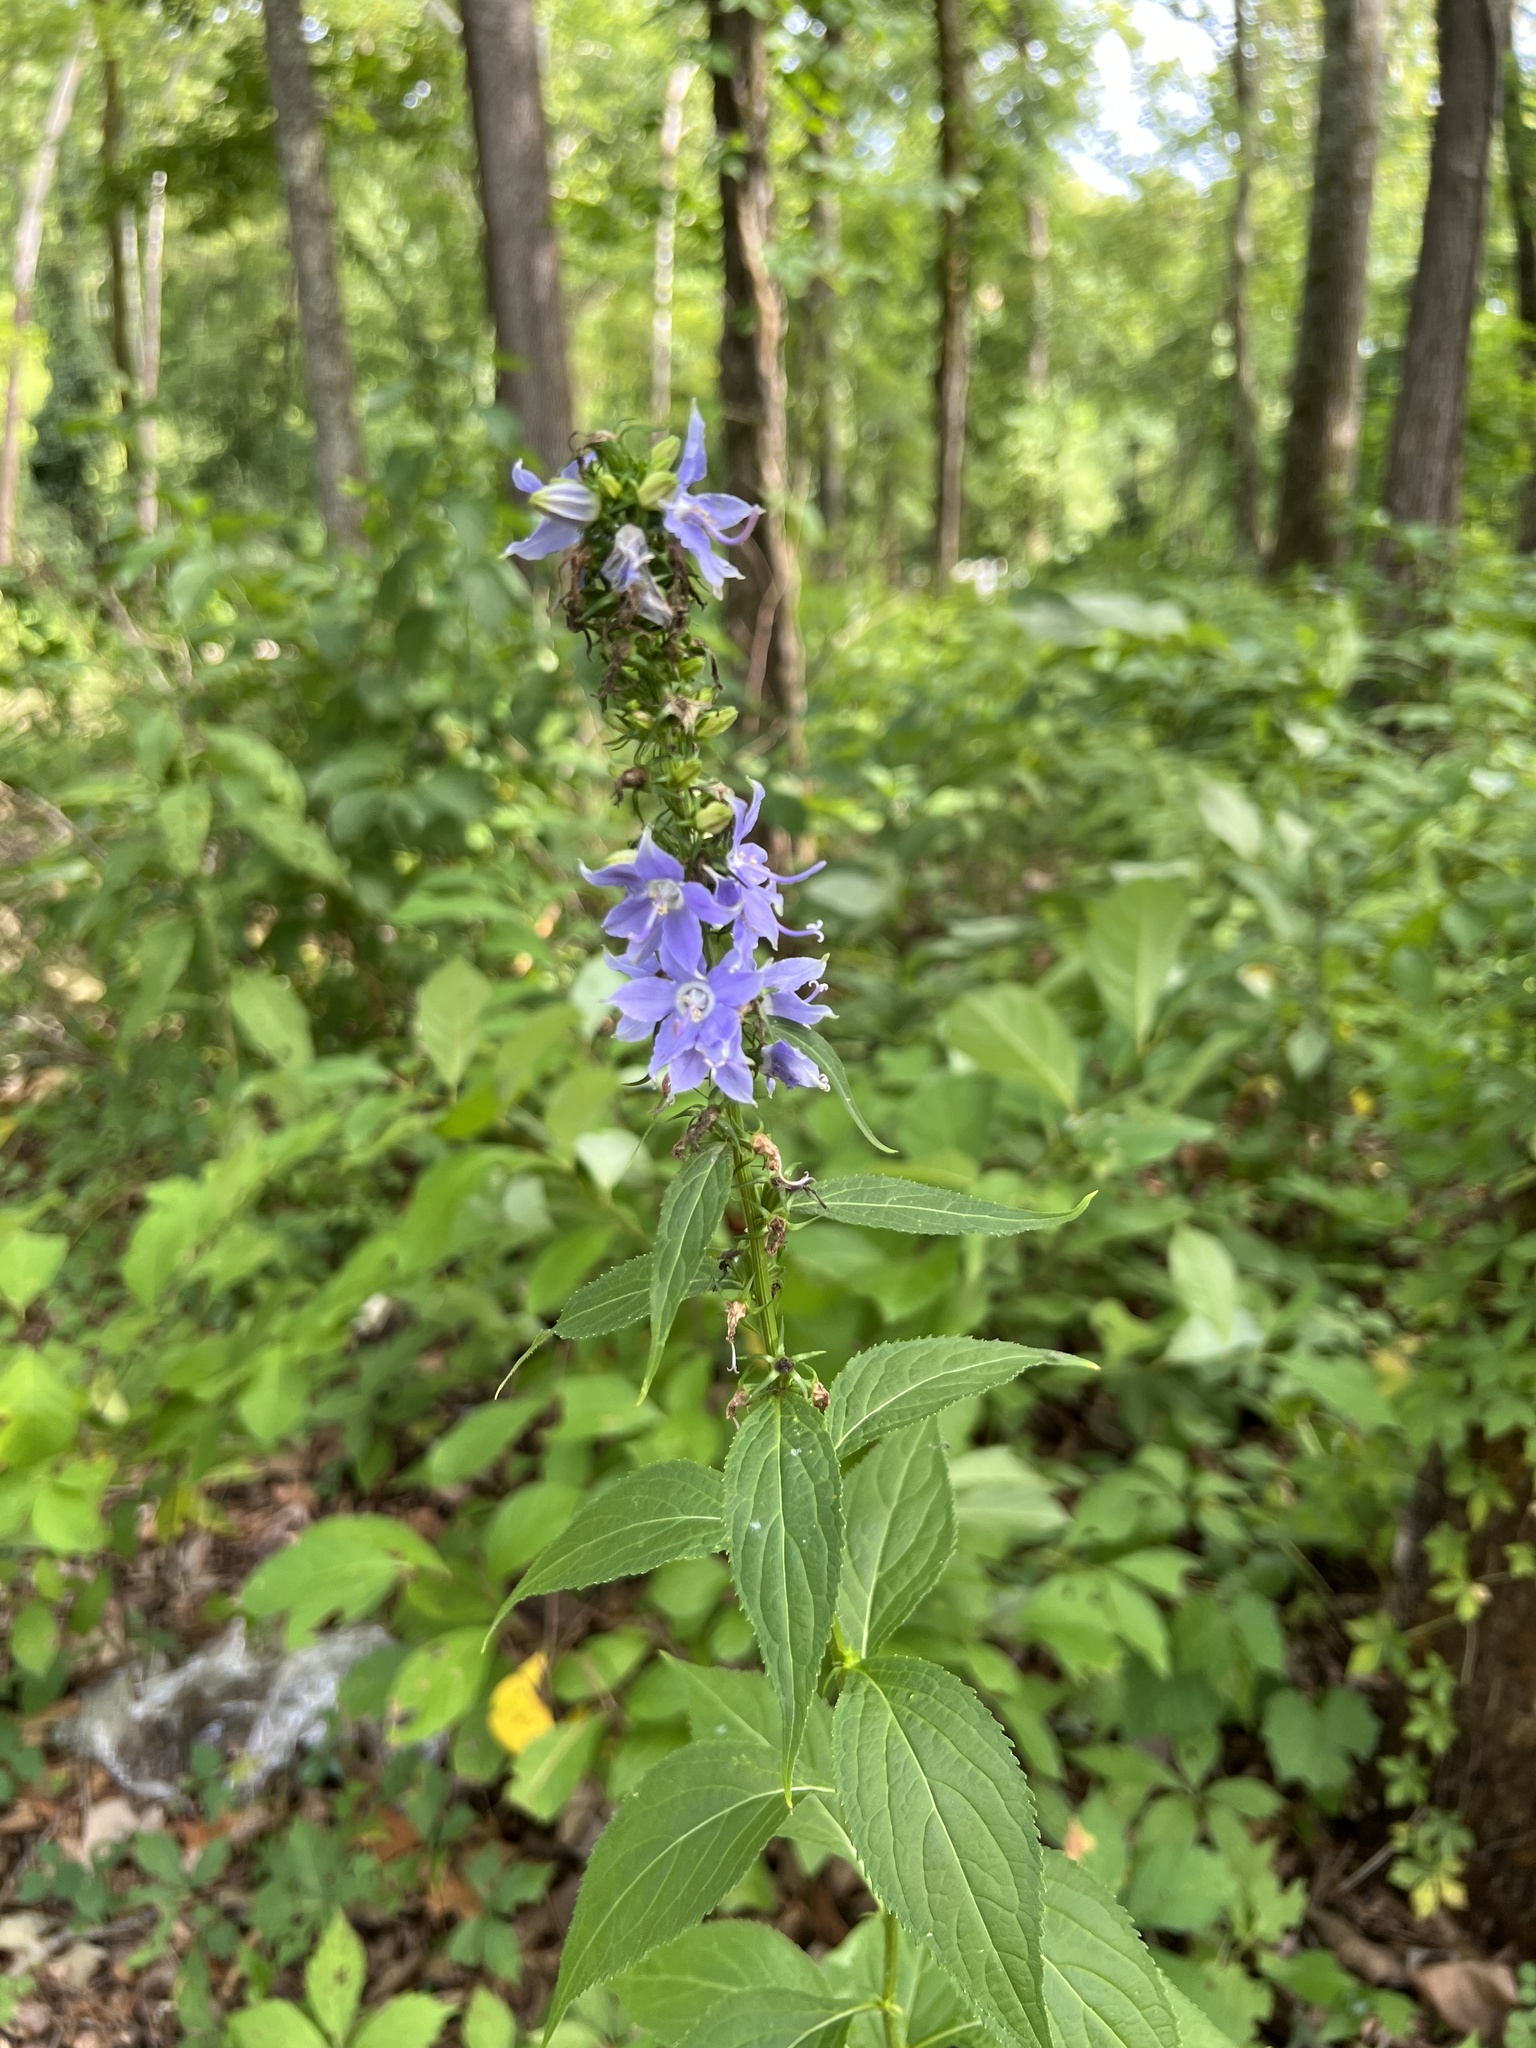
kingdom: Plantae
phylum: Tracheophyta
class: Magnoliopsida
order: Asterales
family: Campanulaceae
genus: Campanulastrum
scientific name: Campanulastrum americanum
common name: American bellflower
